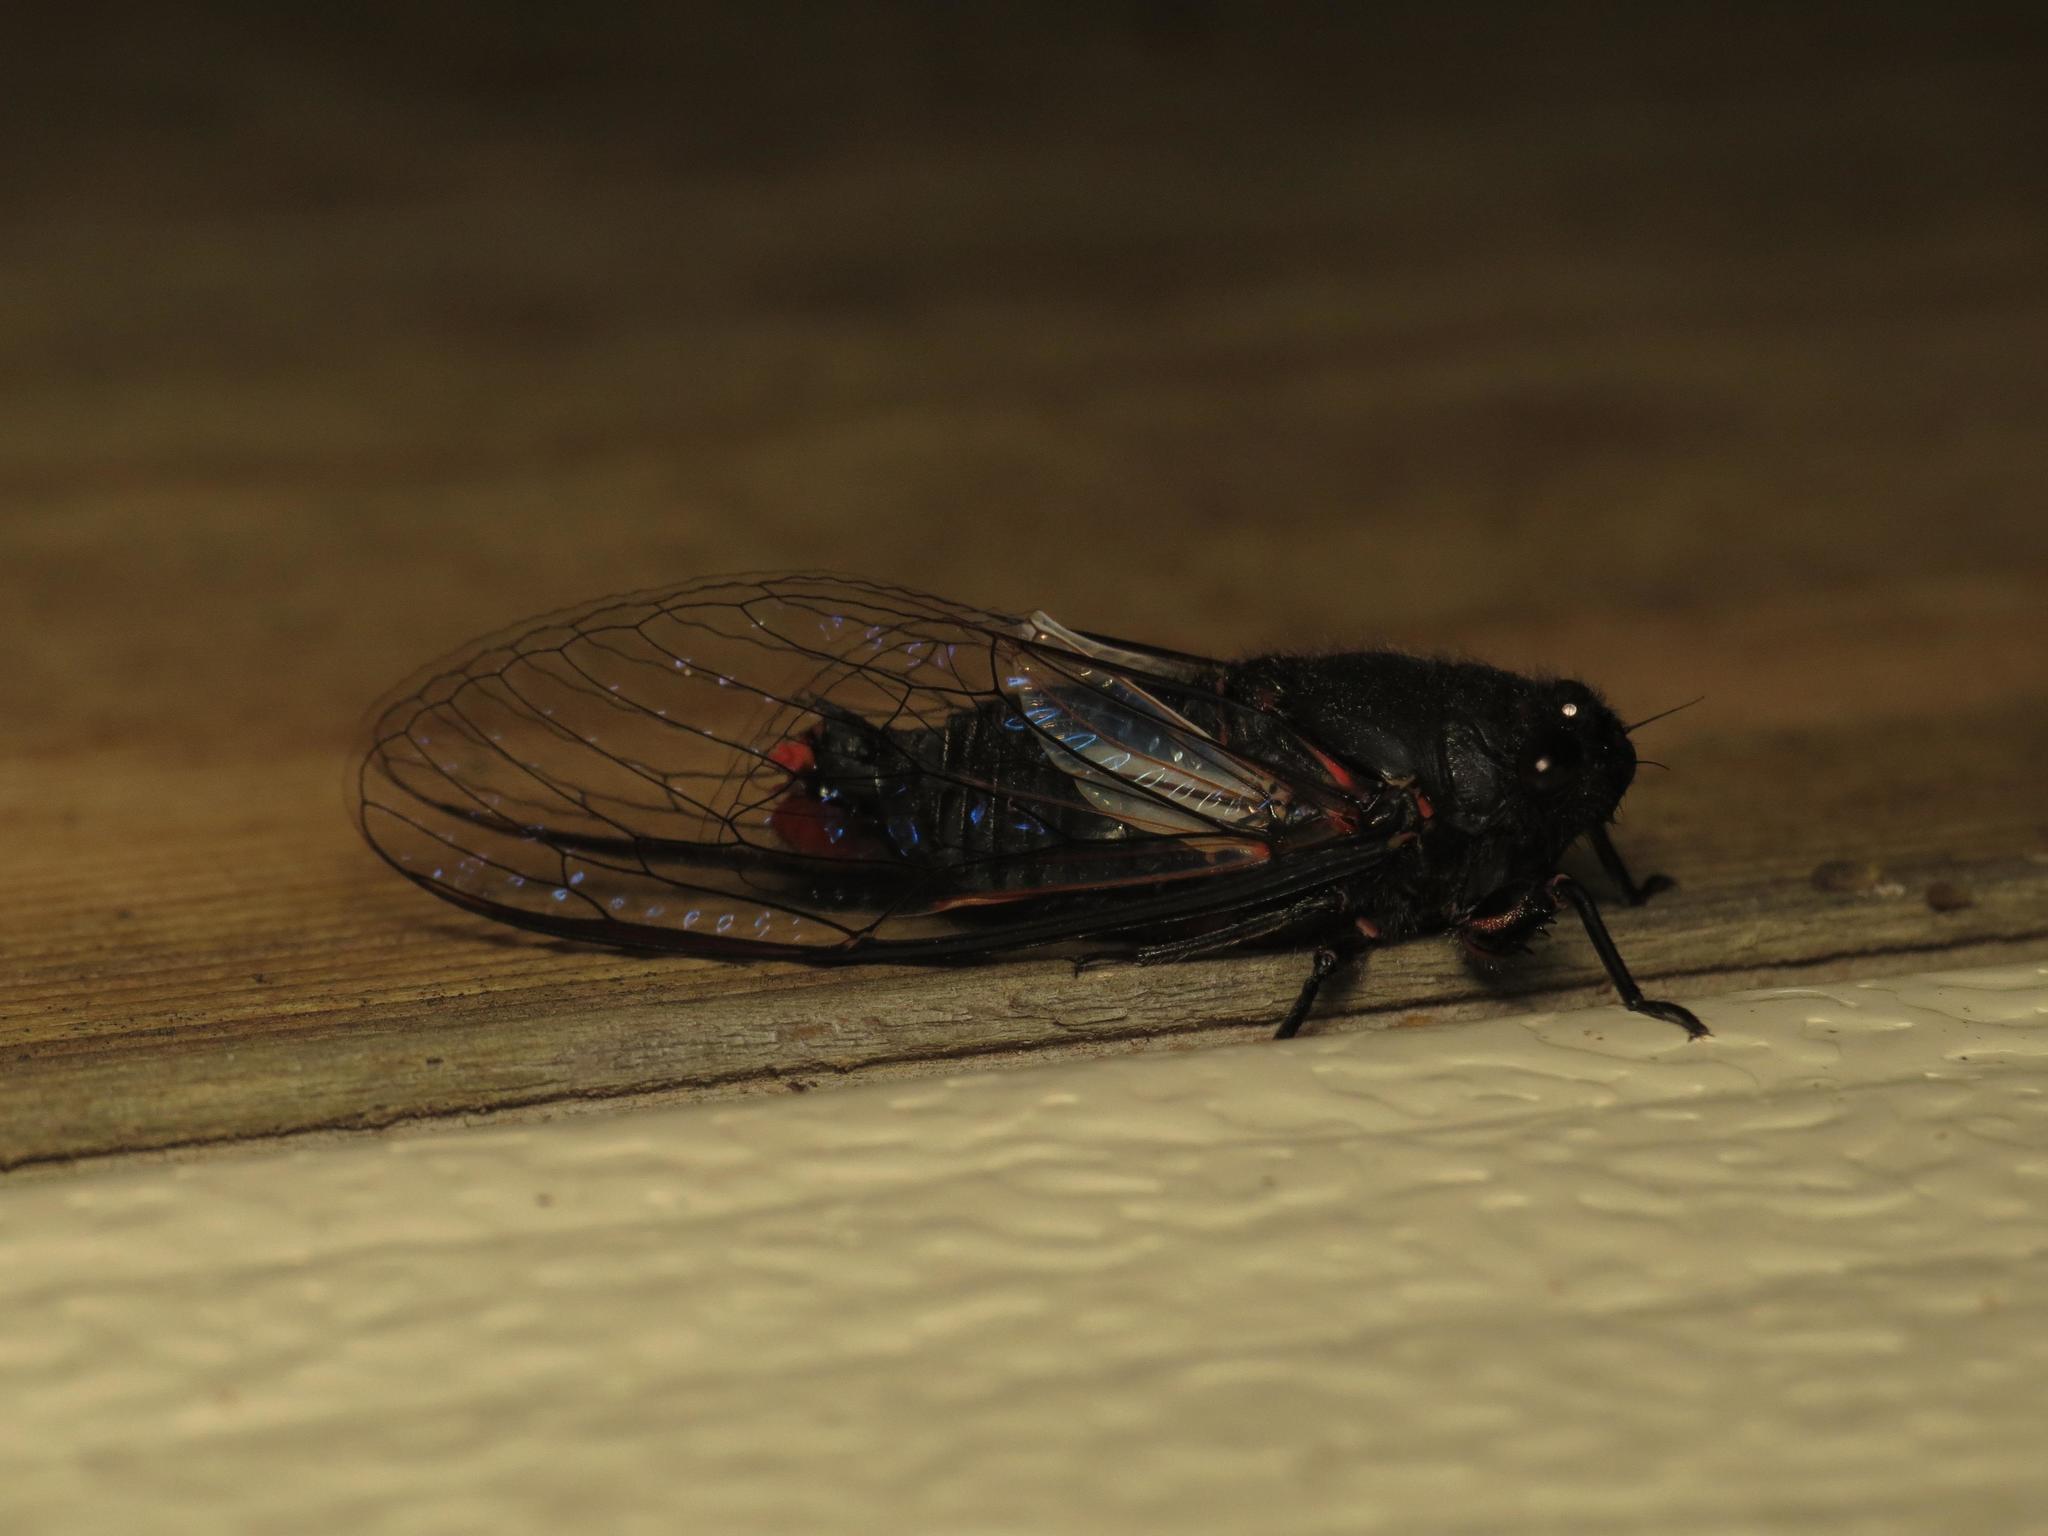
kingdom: Animalia
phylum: Arthropoda
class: Insecta
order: Hemiptera
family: Cicadidae
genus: Yoyetta
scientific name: Yoyetta denisoni
